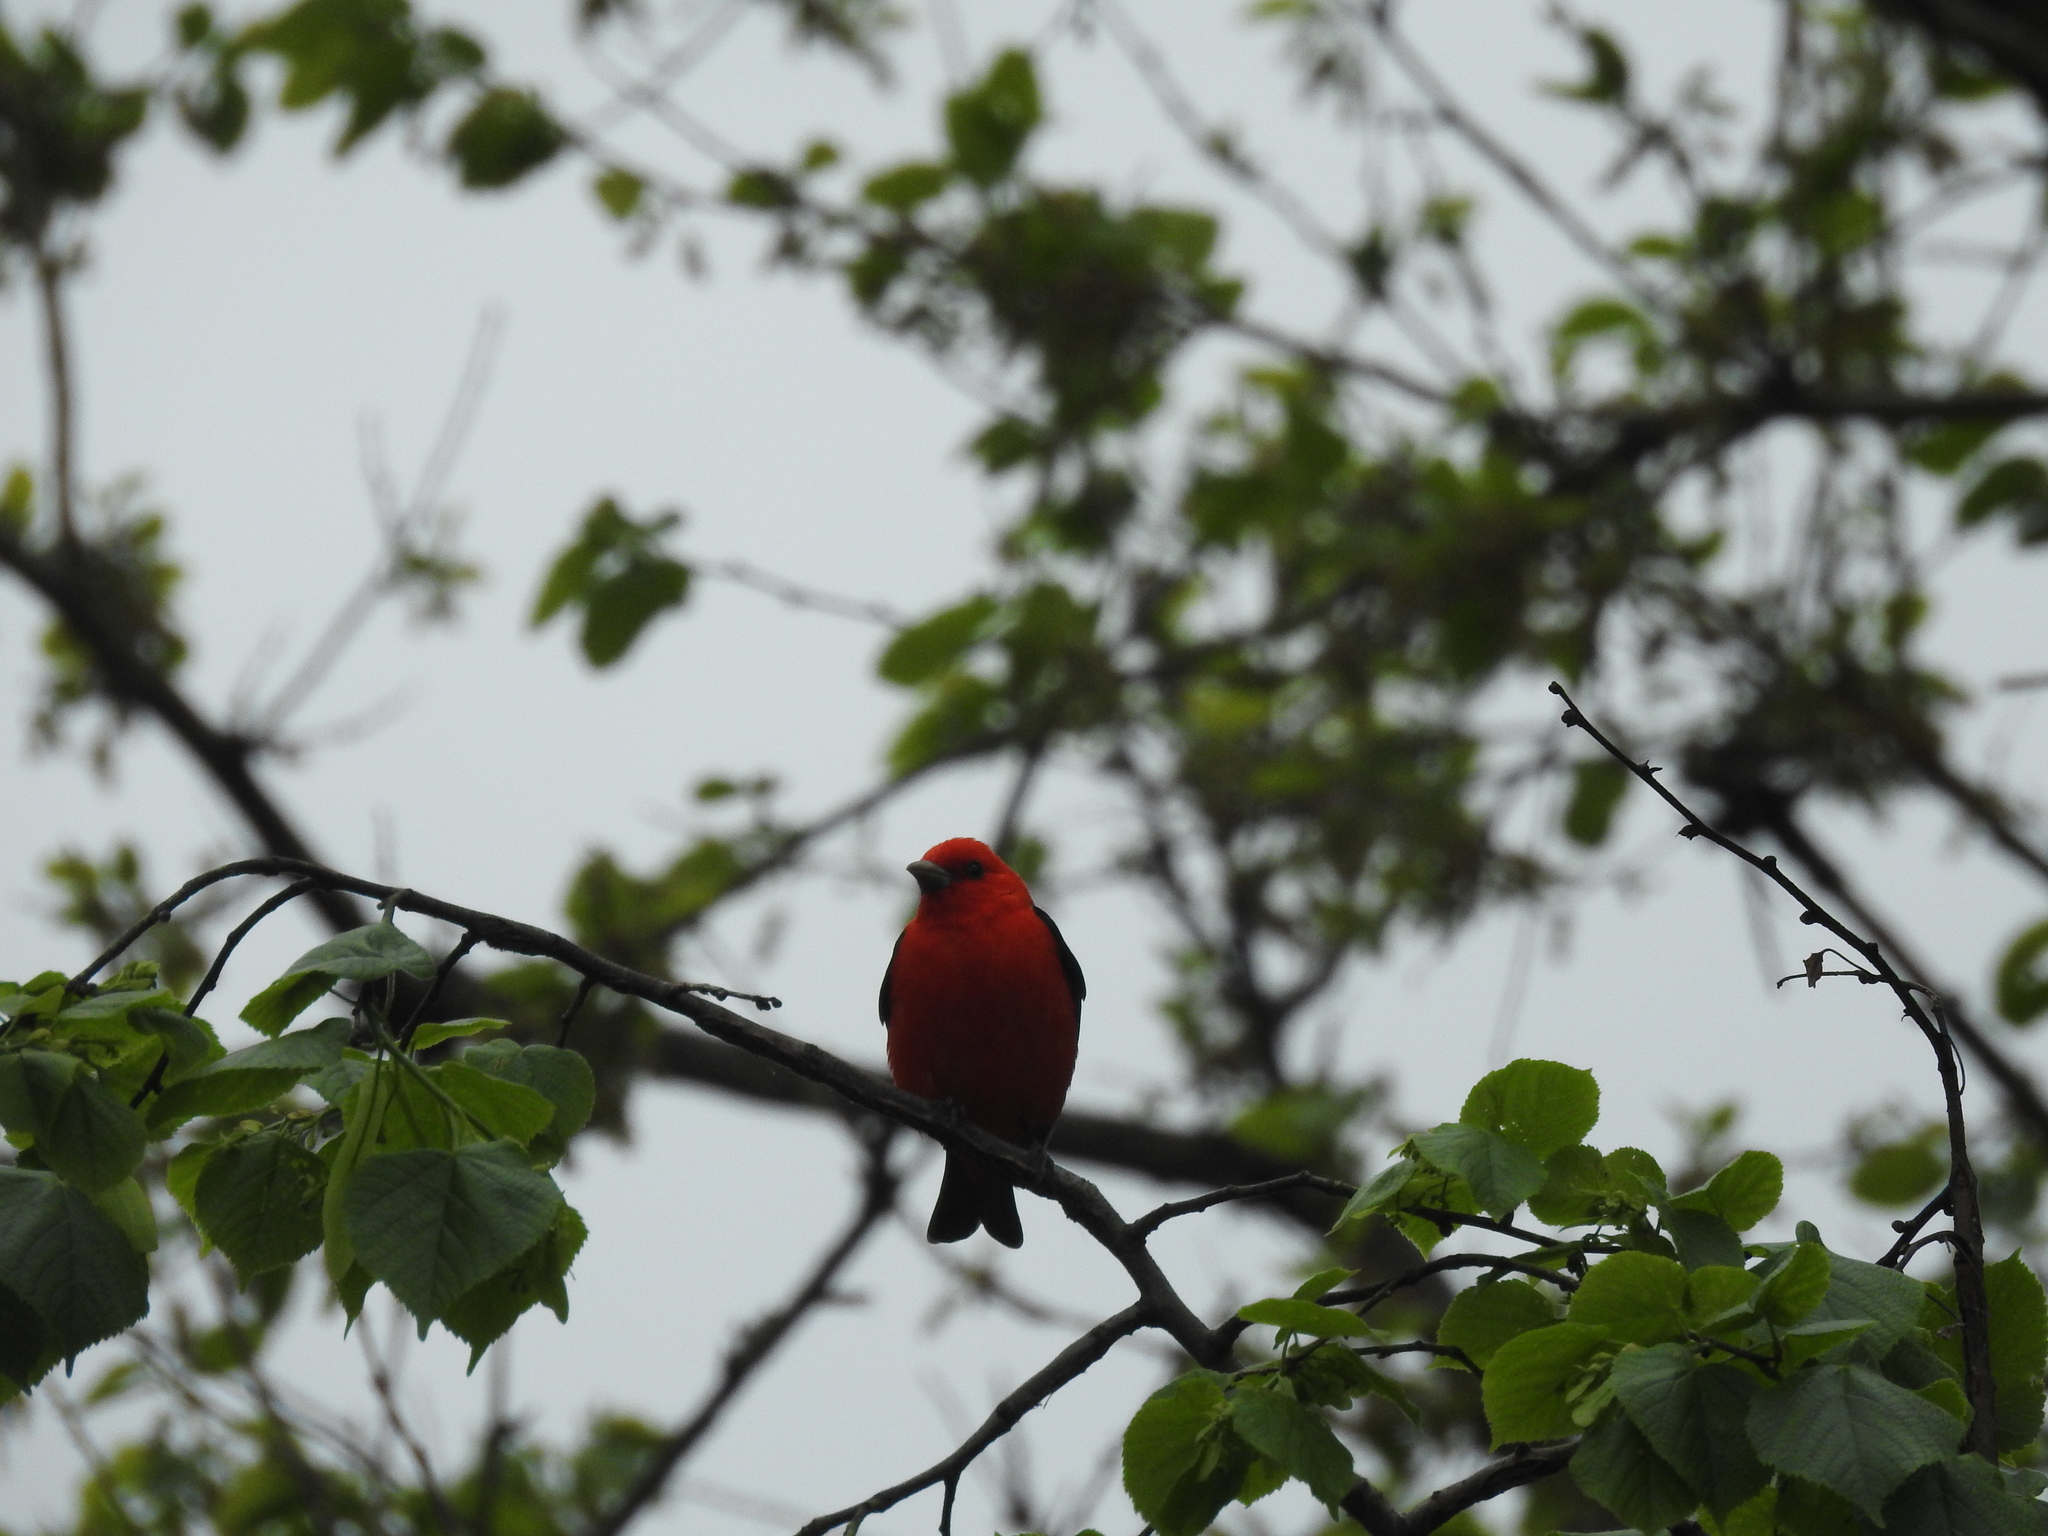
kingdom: Animalia
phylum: Chordata
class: Aves
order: Passeriformes
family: Cardinalidae
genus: Piranga
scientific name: Piranga olivacea
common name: Scarlet tanager
